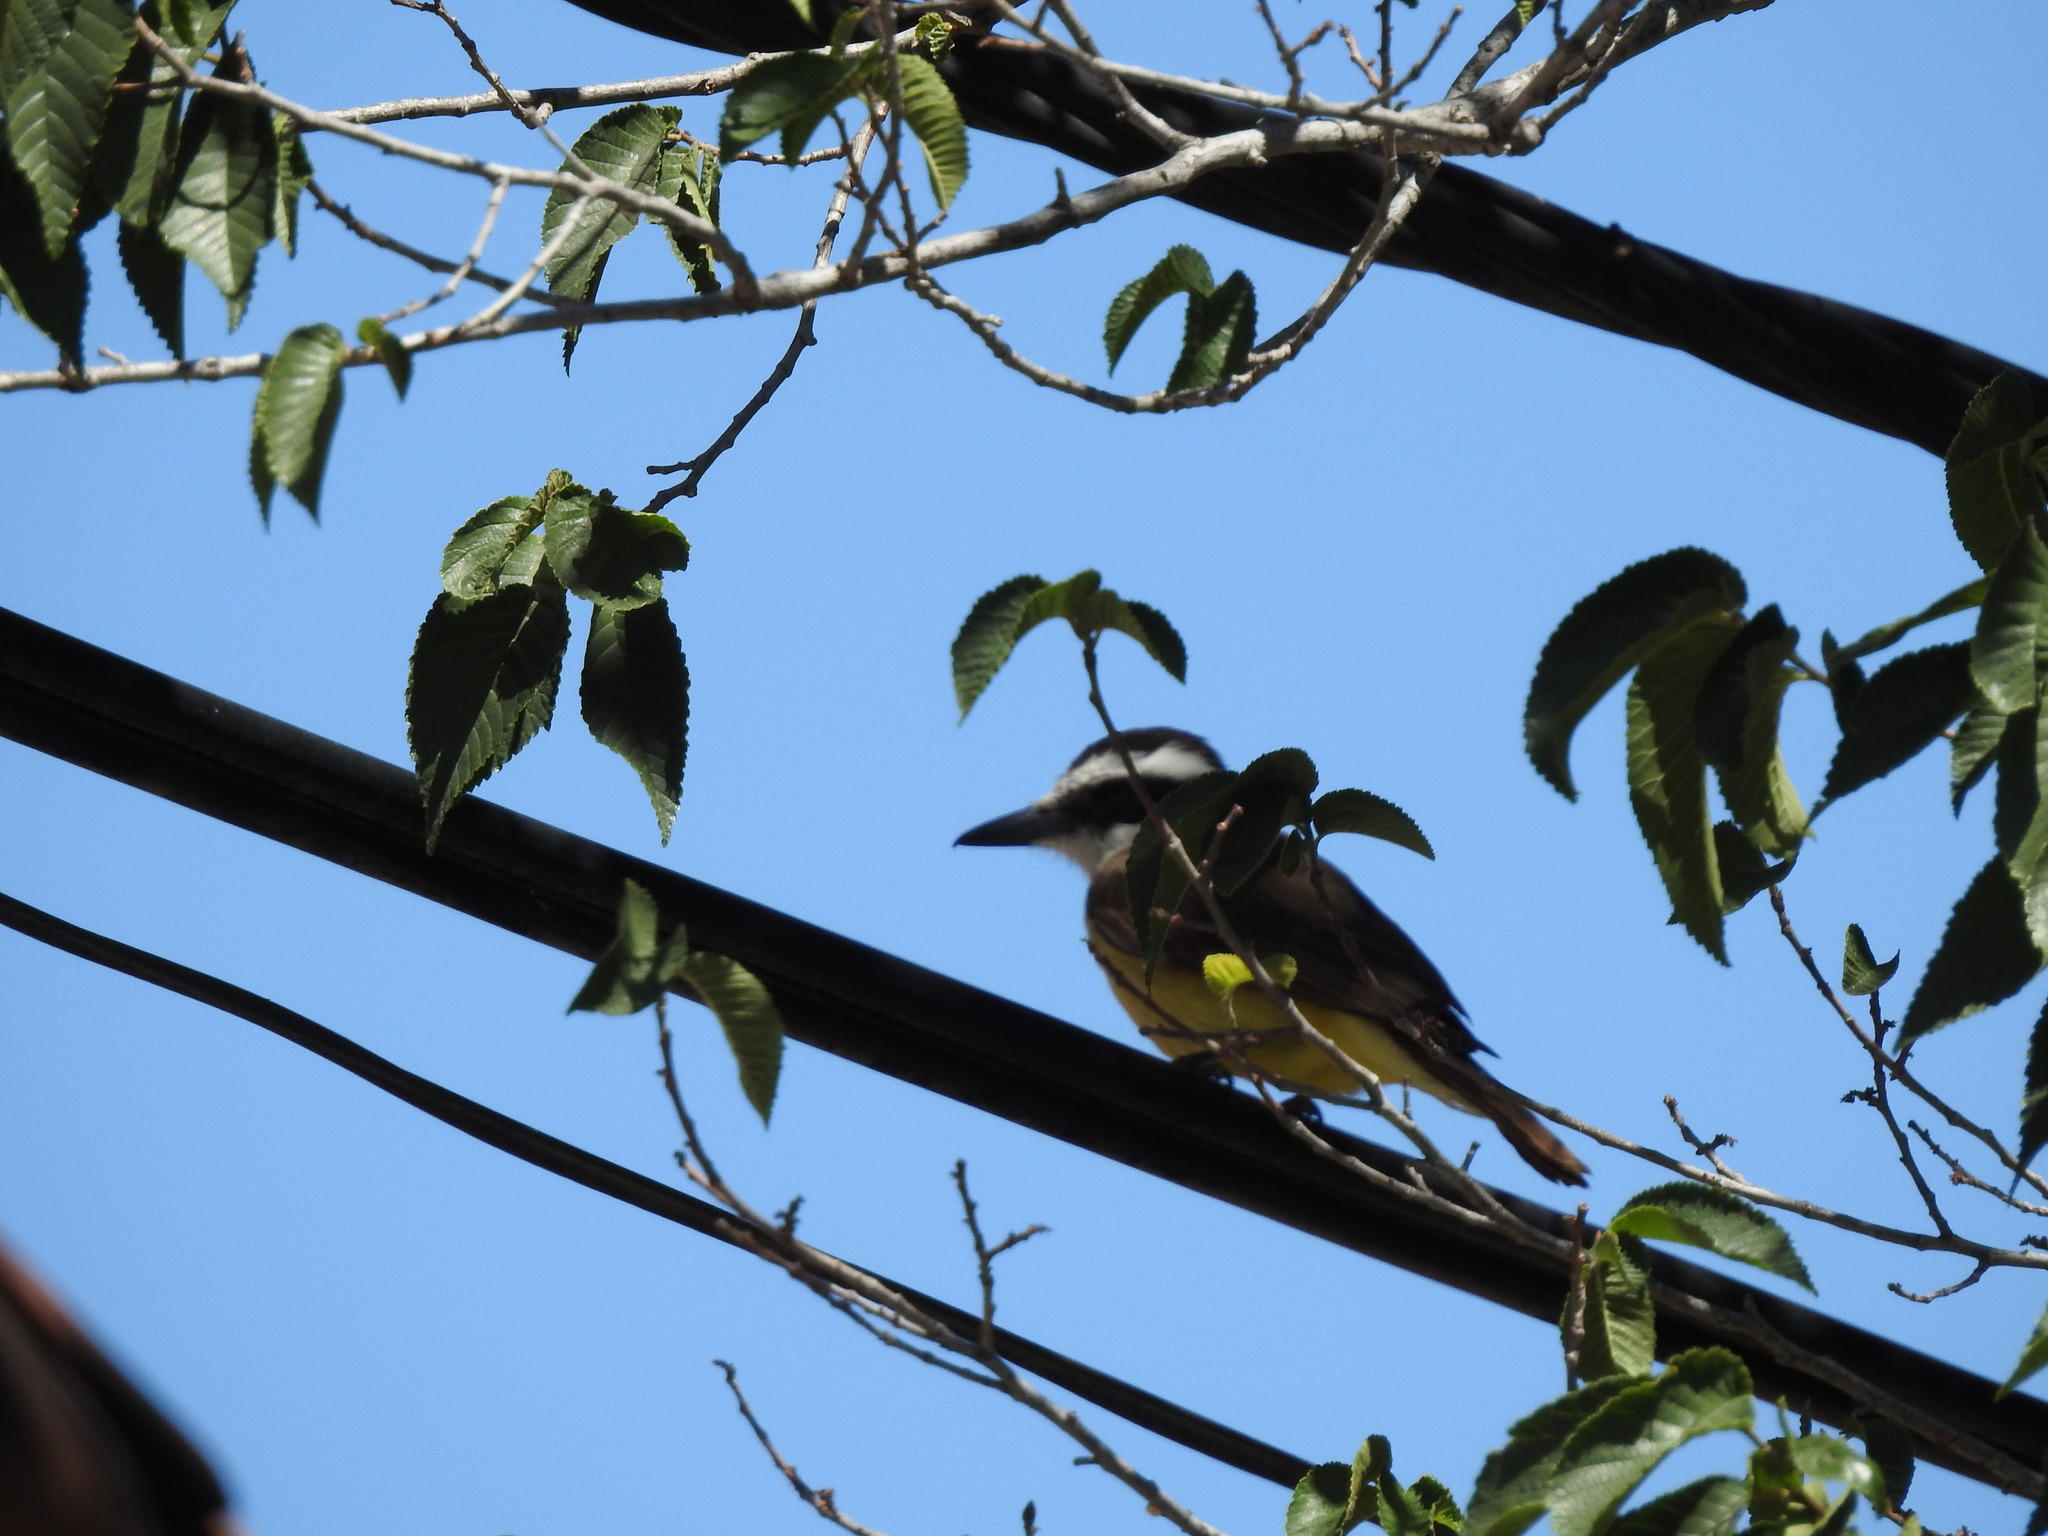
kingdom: Animalia
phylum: Chordata
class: Aves
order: Passeriformes
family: Tyrannidae
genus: Pitangus
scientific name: Pitangus sulphuratus
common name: Great kiskadee
